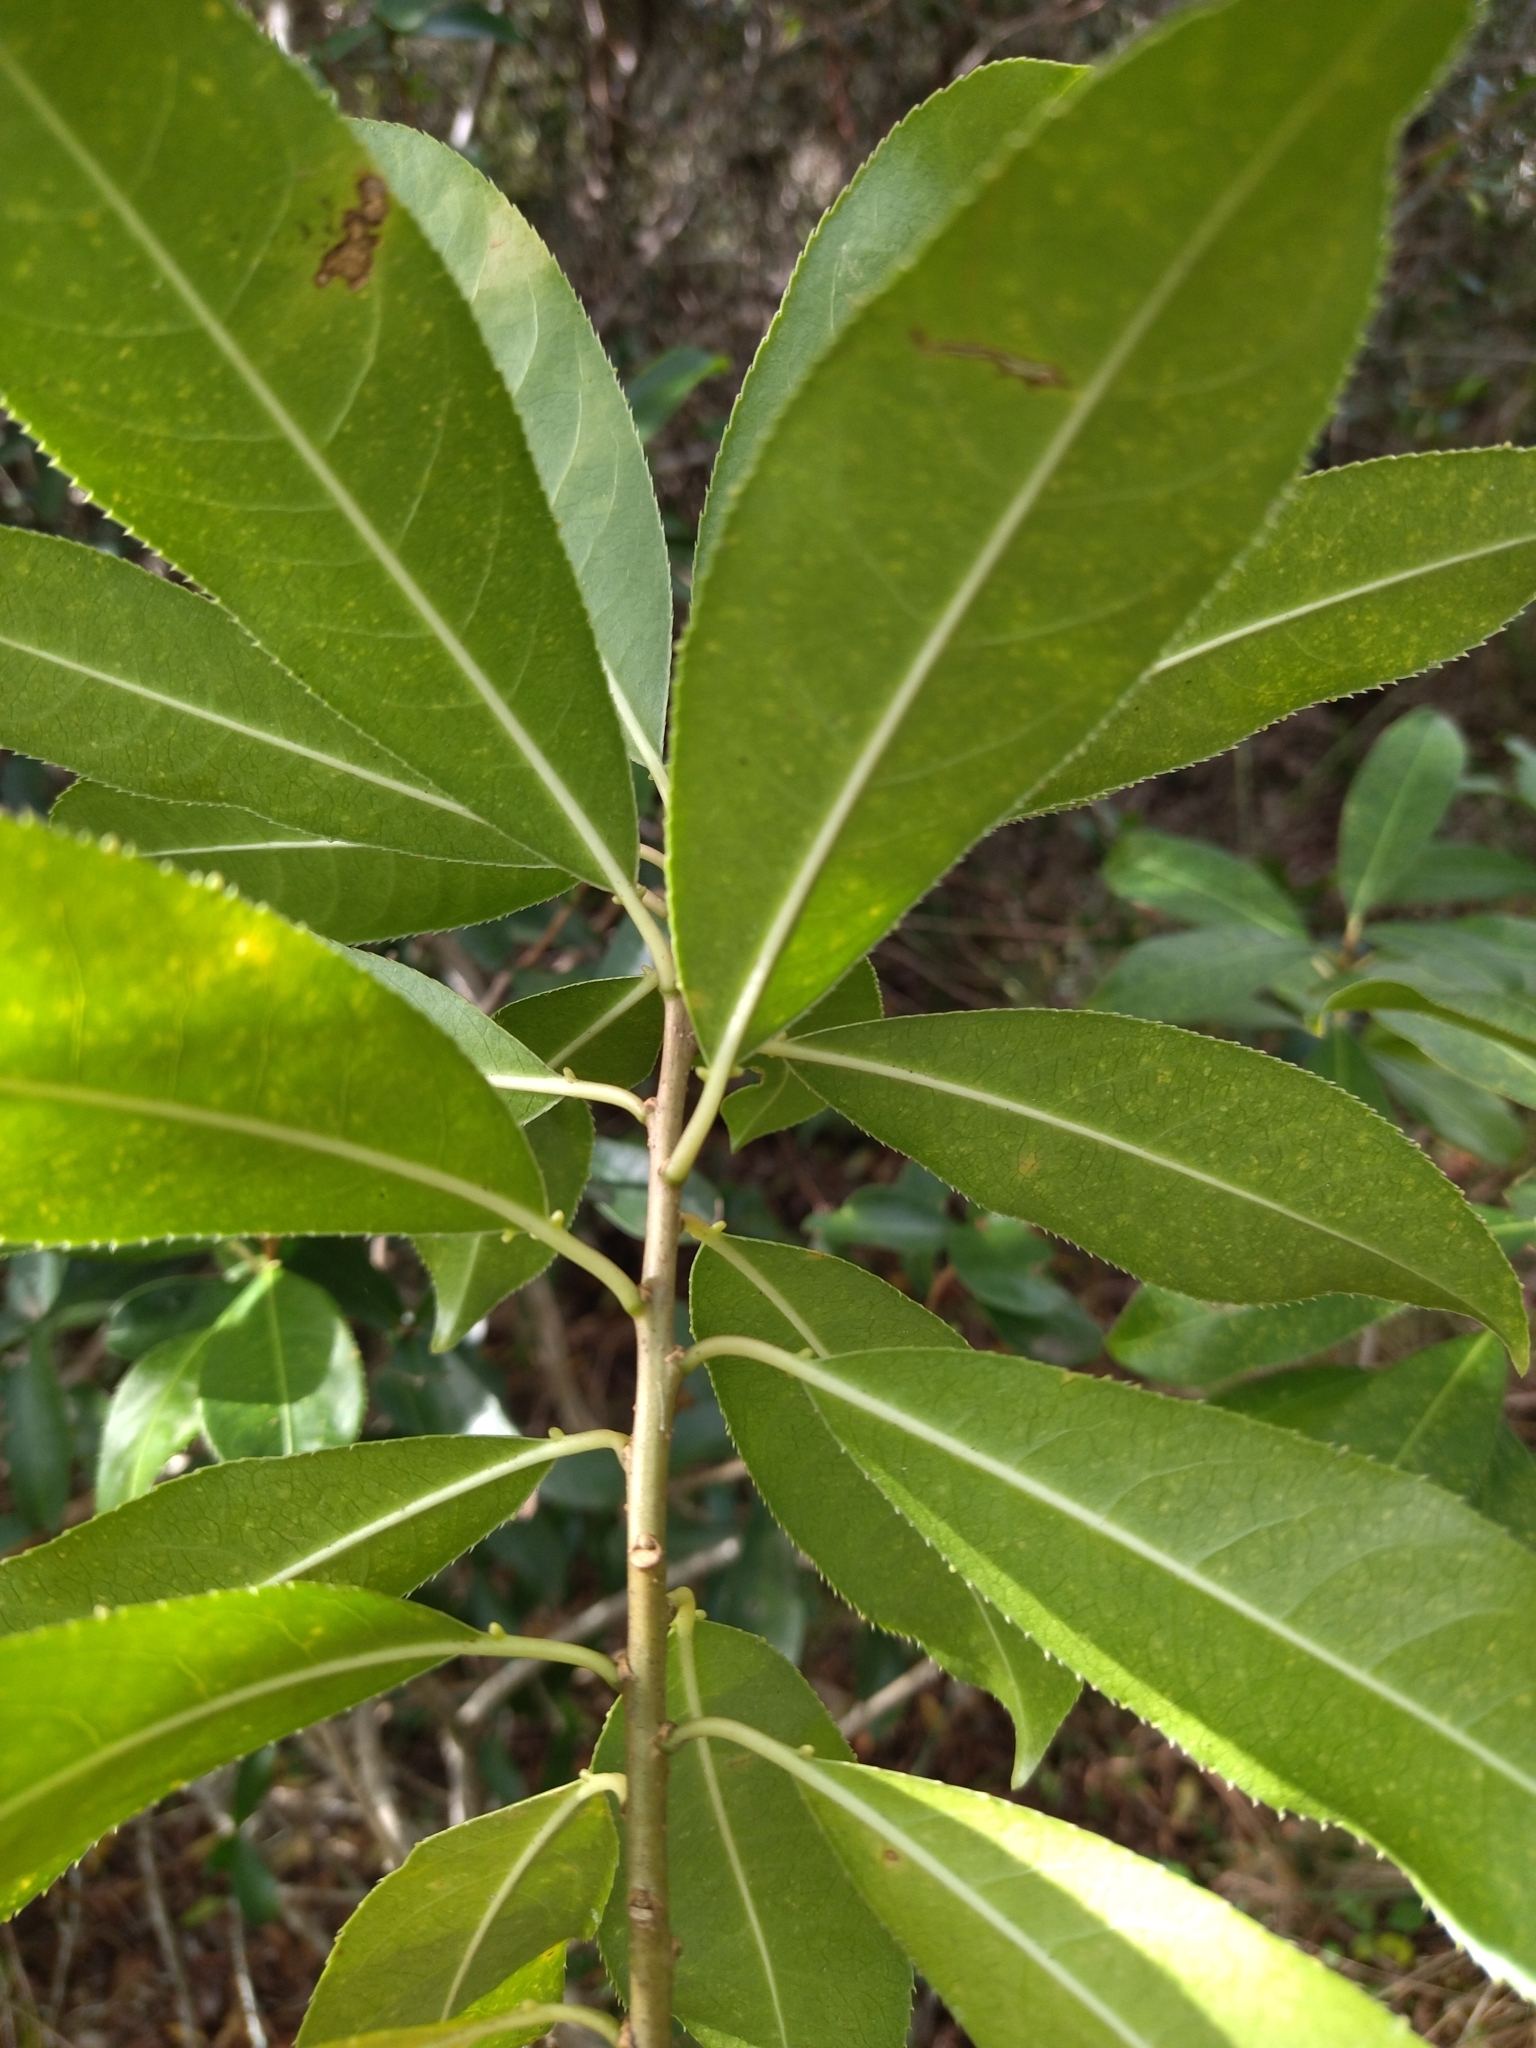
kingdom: Plantae
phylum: Tracheophyta
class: Magnoliopsida
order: Malpighiales
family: Euphorbiaceae
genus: Sapium
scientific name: Sapium glandulosum
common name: Milktree
